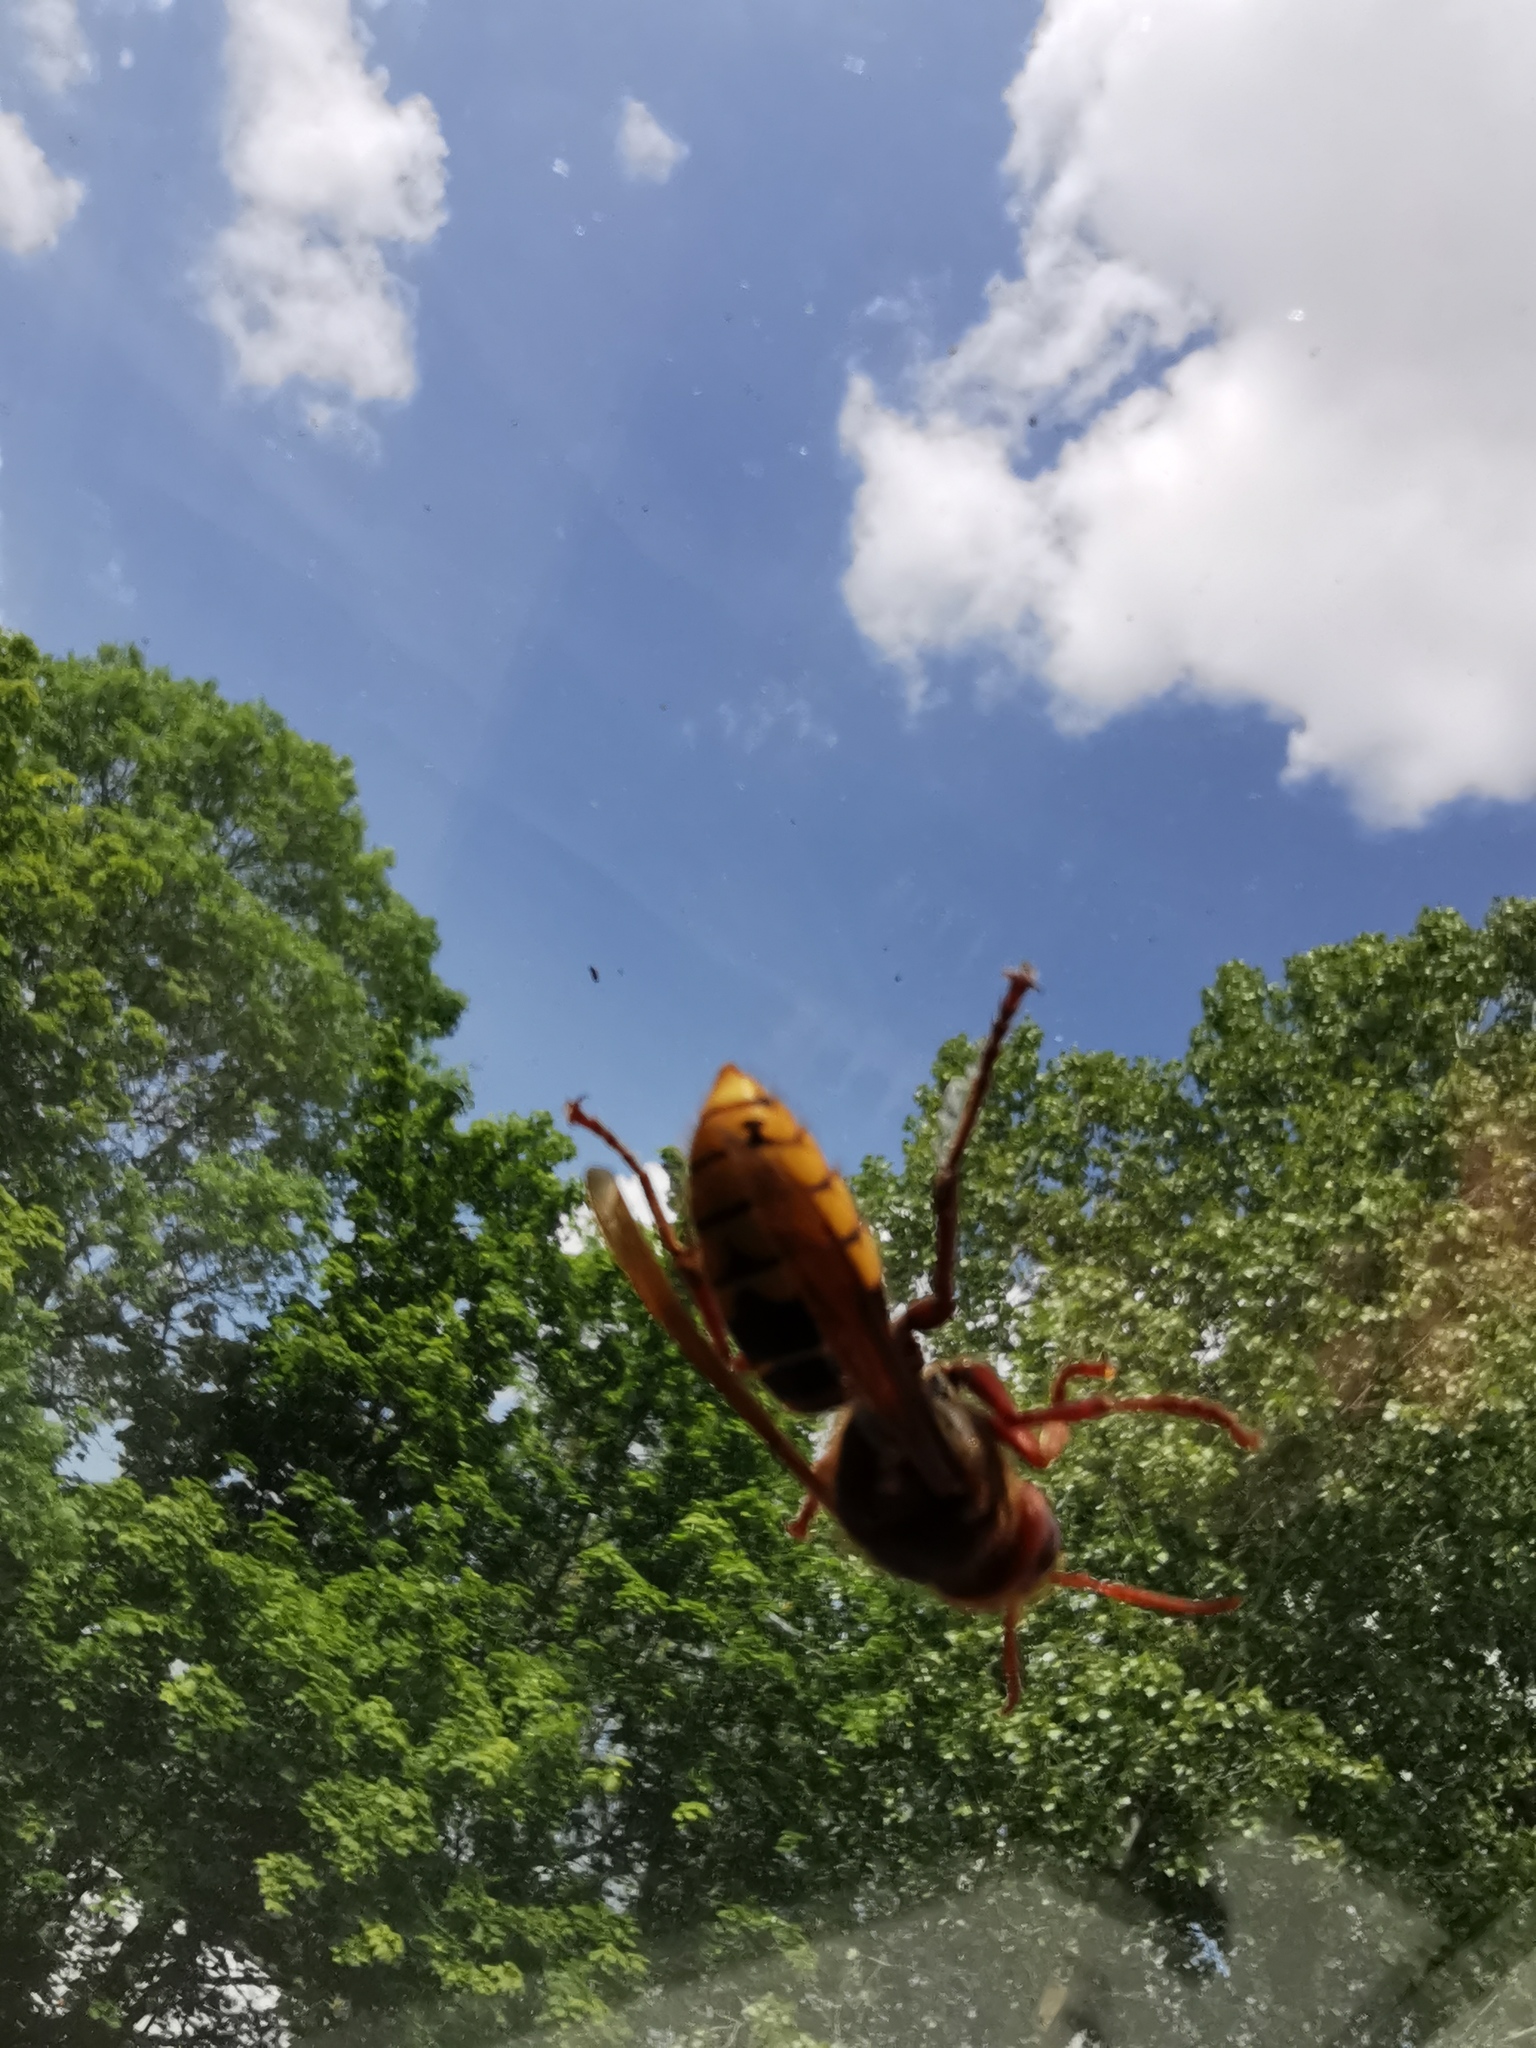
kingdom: Animalia
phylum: Arthropoda
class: Insecta
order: Hymenoptera
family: Vespidae
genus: Vespa
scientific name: Vespa crabro
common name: Hornet
